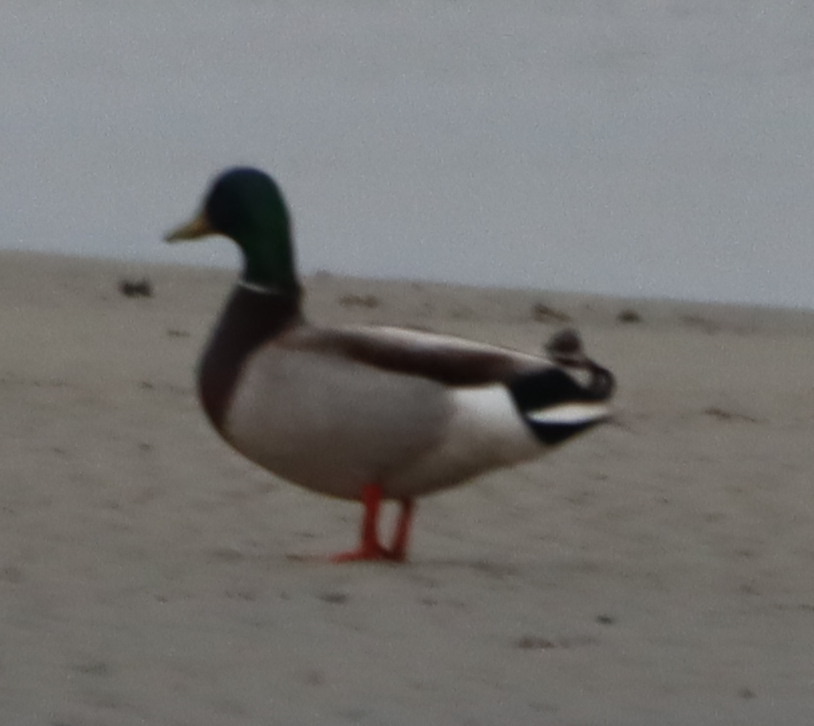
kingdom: Animalia
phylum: Chordata
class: Aves
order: Anseriformes
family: Anatidae
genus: Anas
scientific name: Anas platyrhynchos
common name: Mallard
